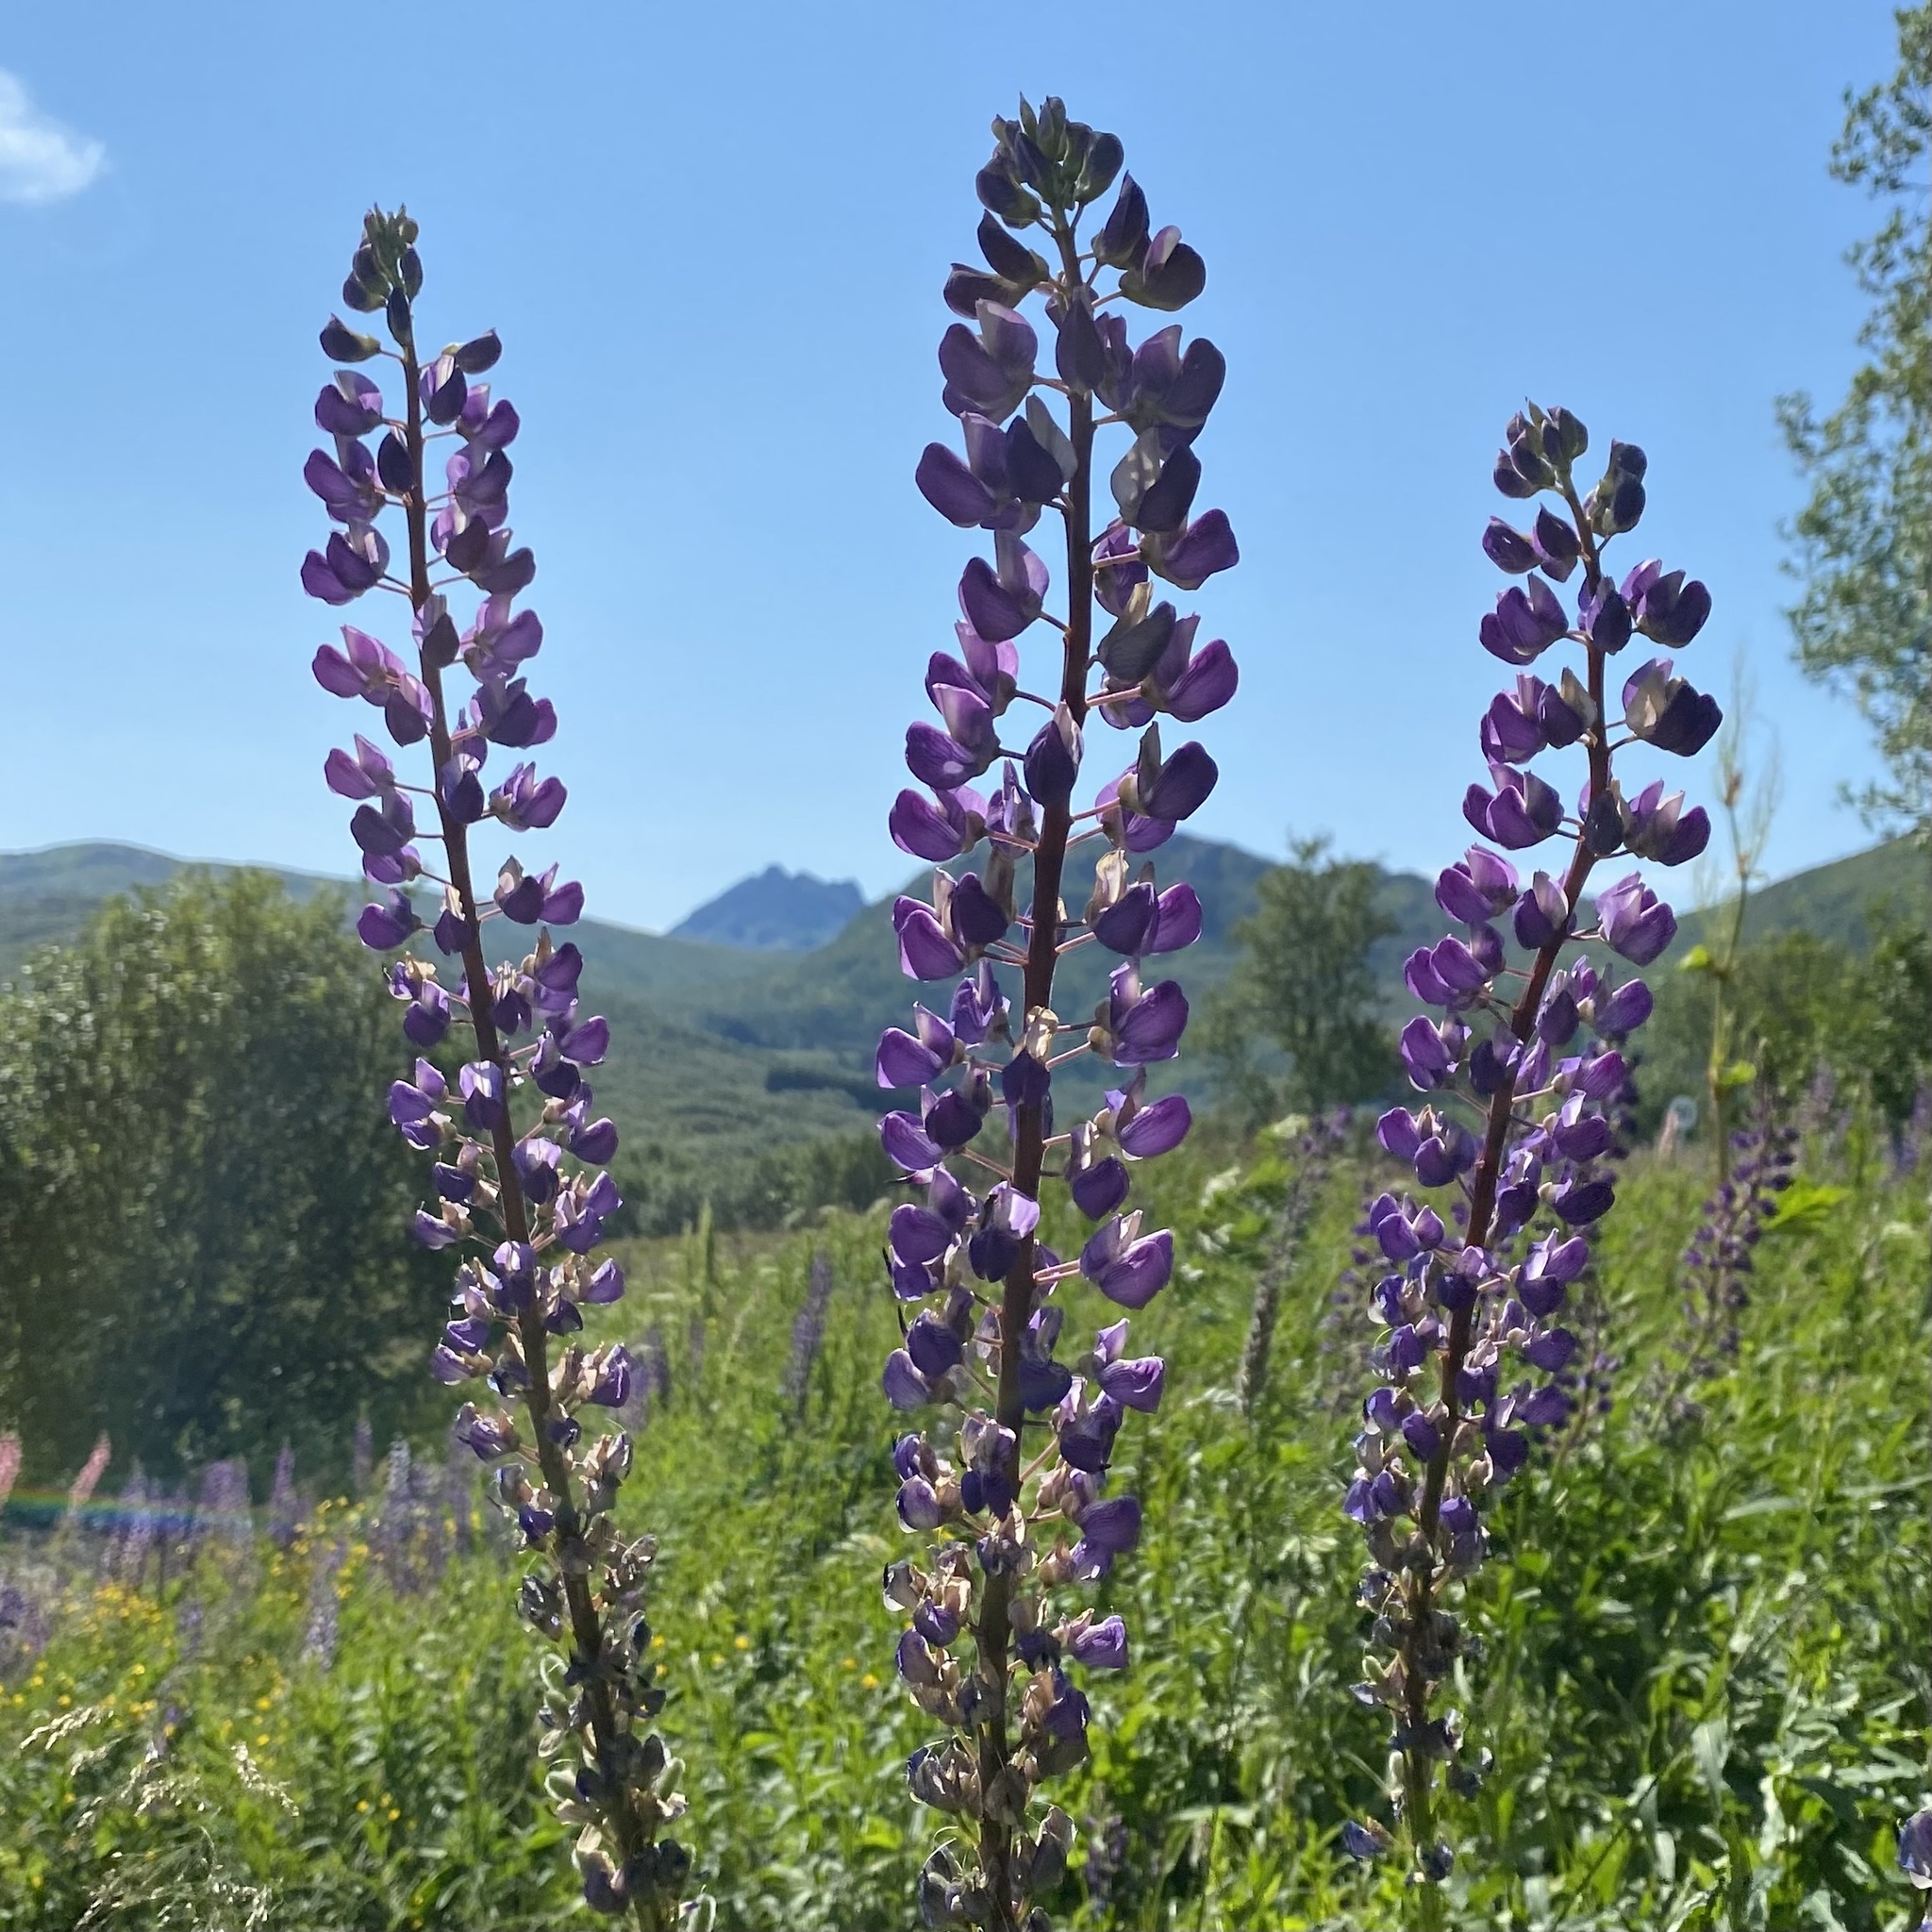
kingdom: Plantae
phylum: Tracheophyta
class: Magnoliopsida
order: Fabales
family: Fabaceae
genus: Lupinus
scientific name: Lupinus polyphyllus
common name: Garden lupin
